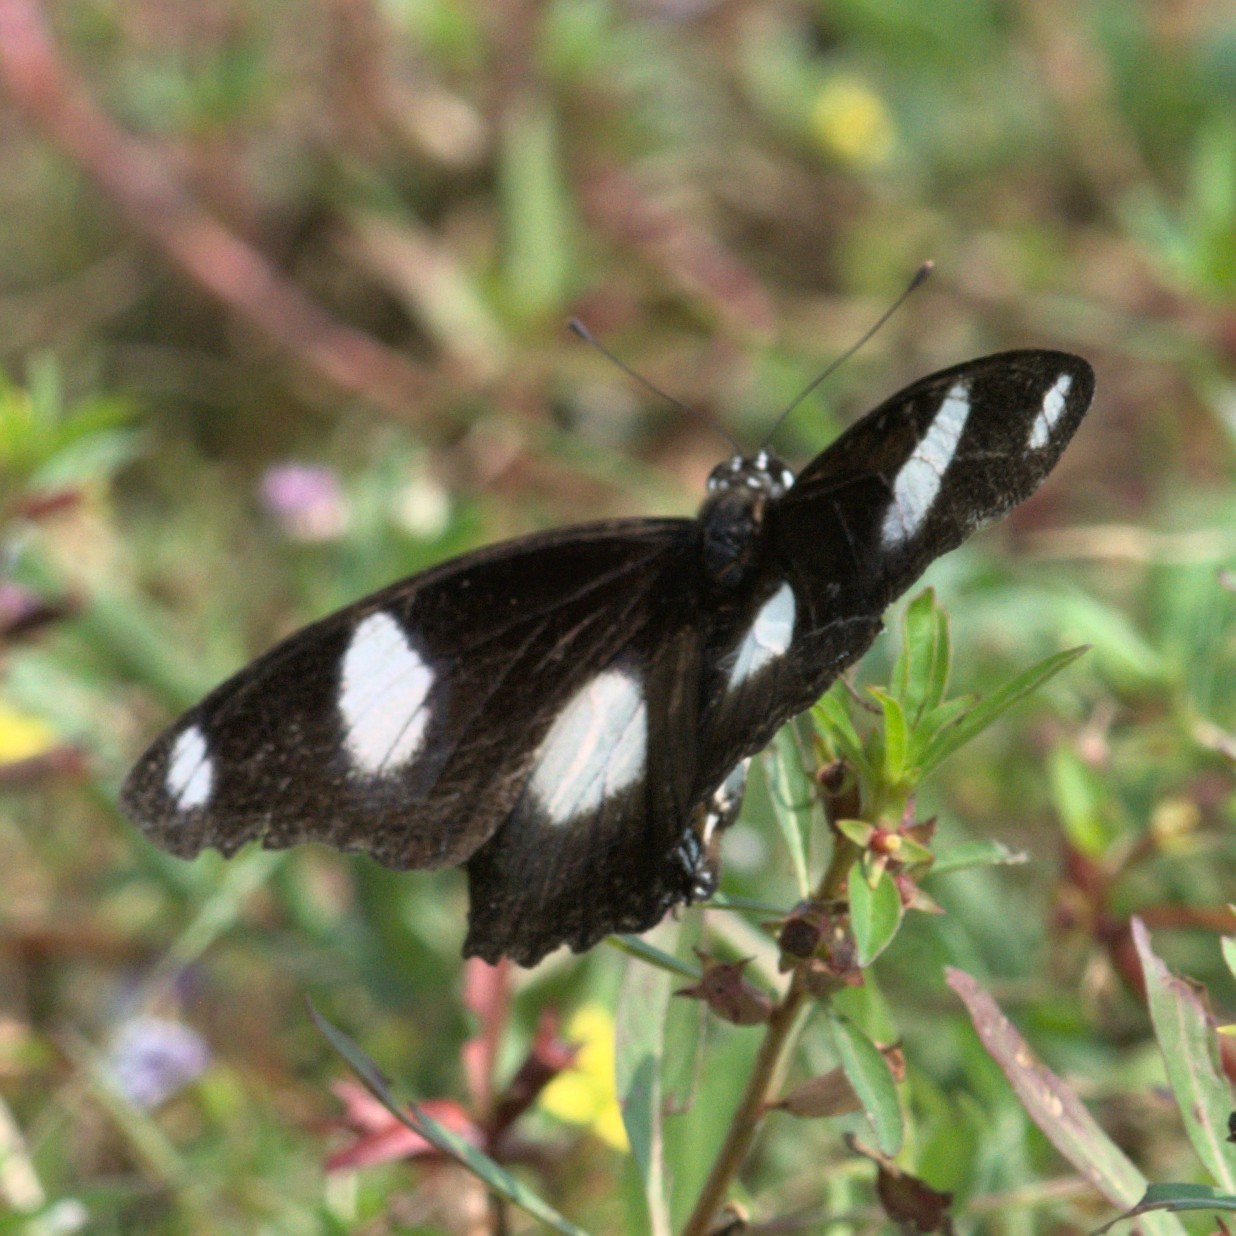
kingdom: Animalia
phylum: Arthropoda
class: Insecta
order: Lepidoptera
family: Nymphalidae
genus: Hypolimnas
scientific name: Hypolimnas misippus
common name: False plain tiger
